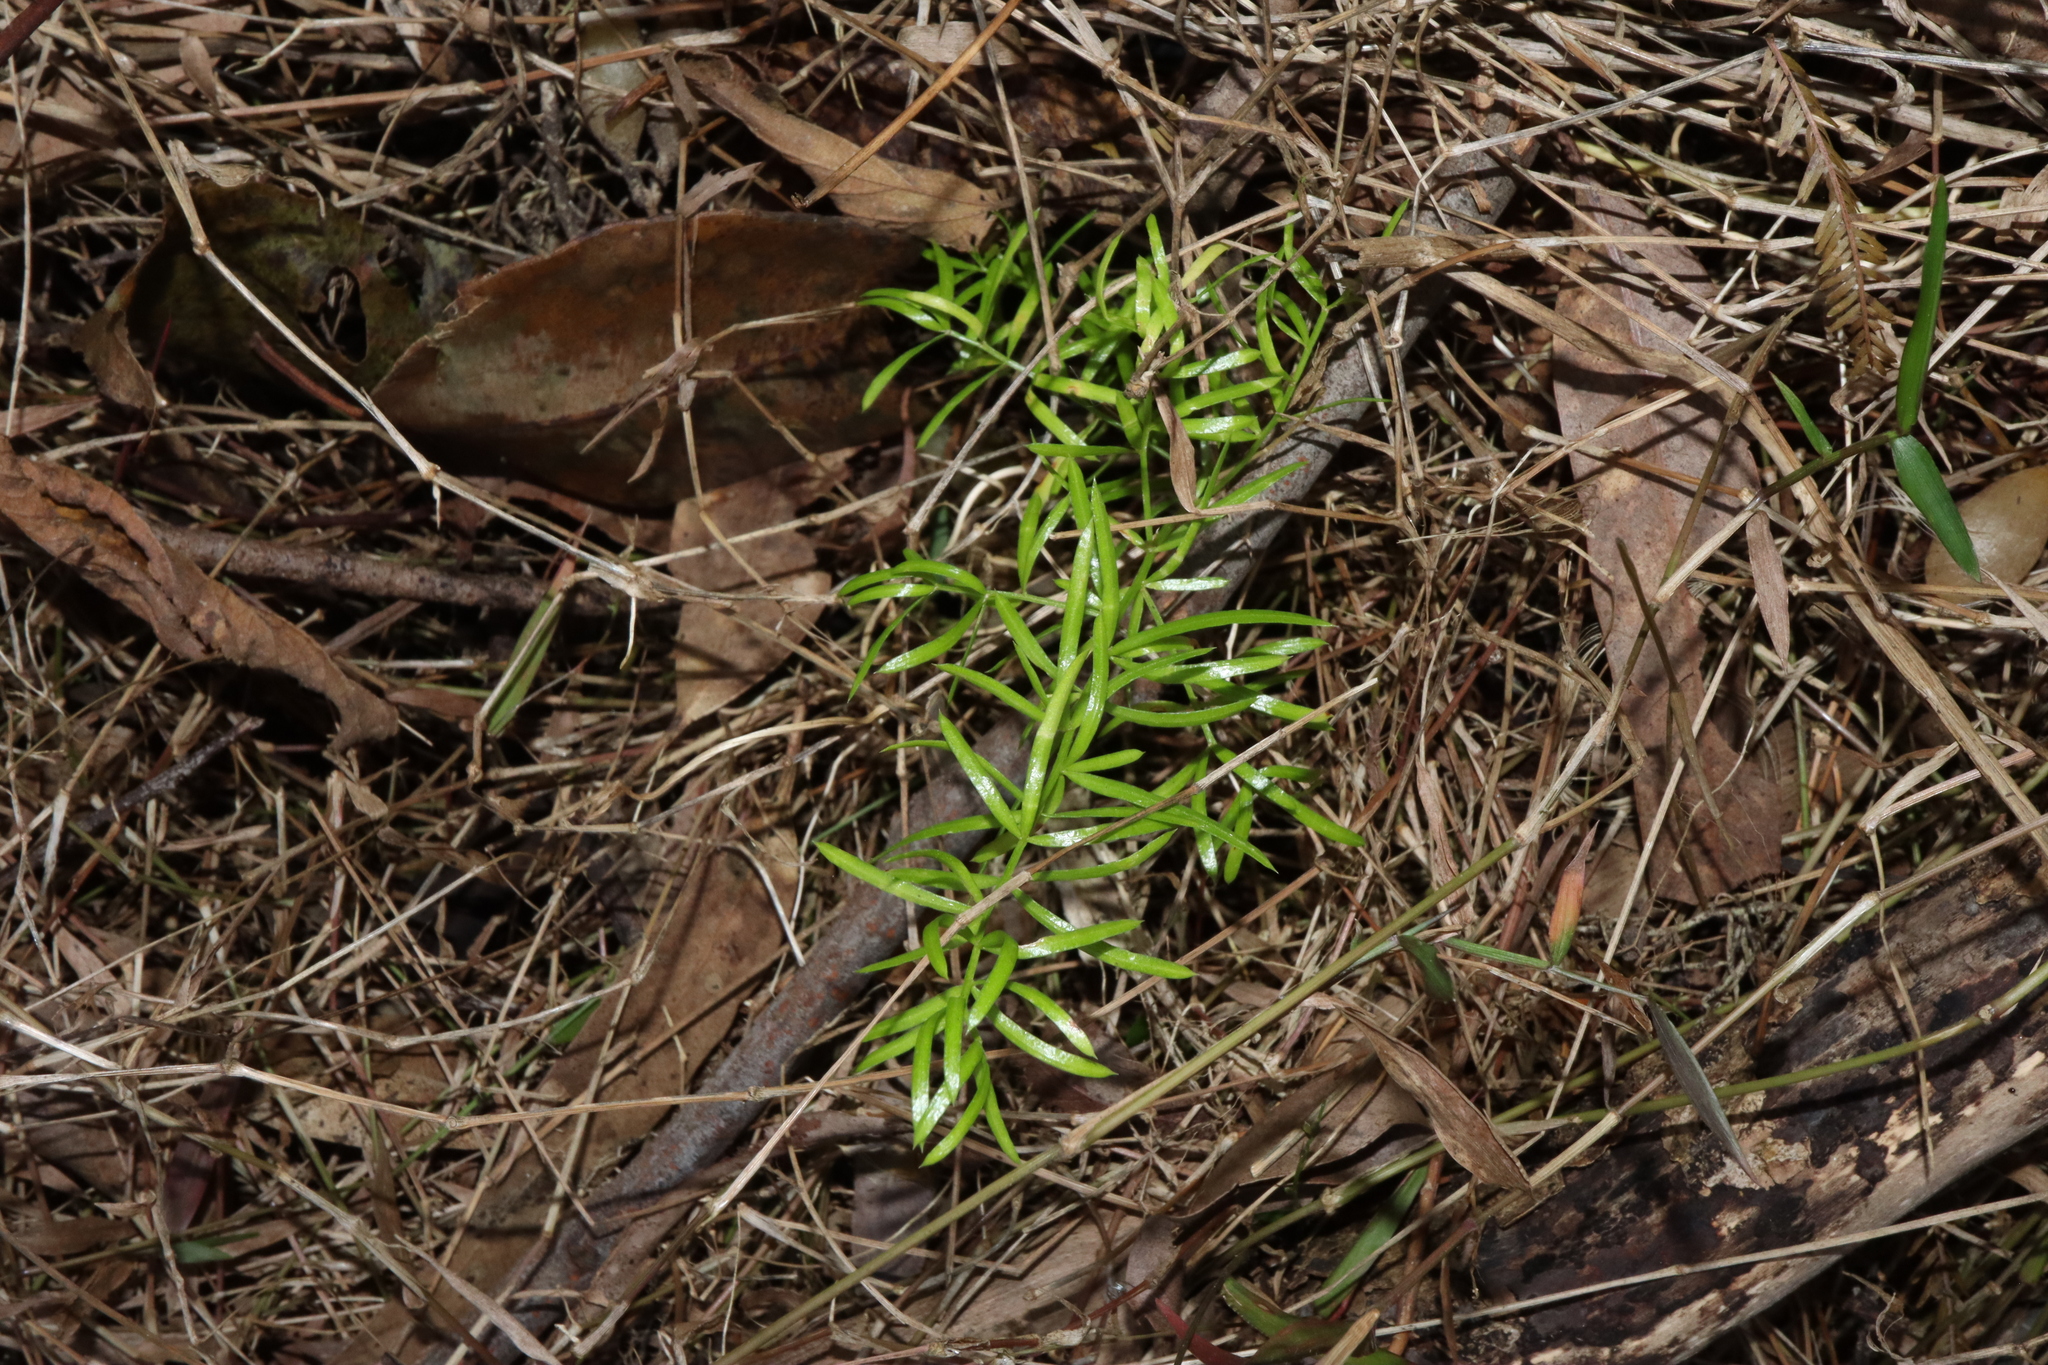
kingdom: Plantae
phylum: Tracheophyta
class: Liliopsida
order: Asparagales
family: Asparagaceae
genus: Asparagus
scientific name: Asparagus aethiopicus
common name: Sprenger's asparagus fern
